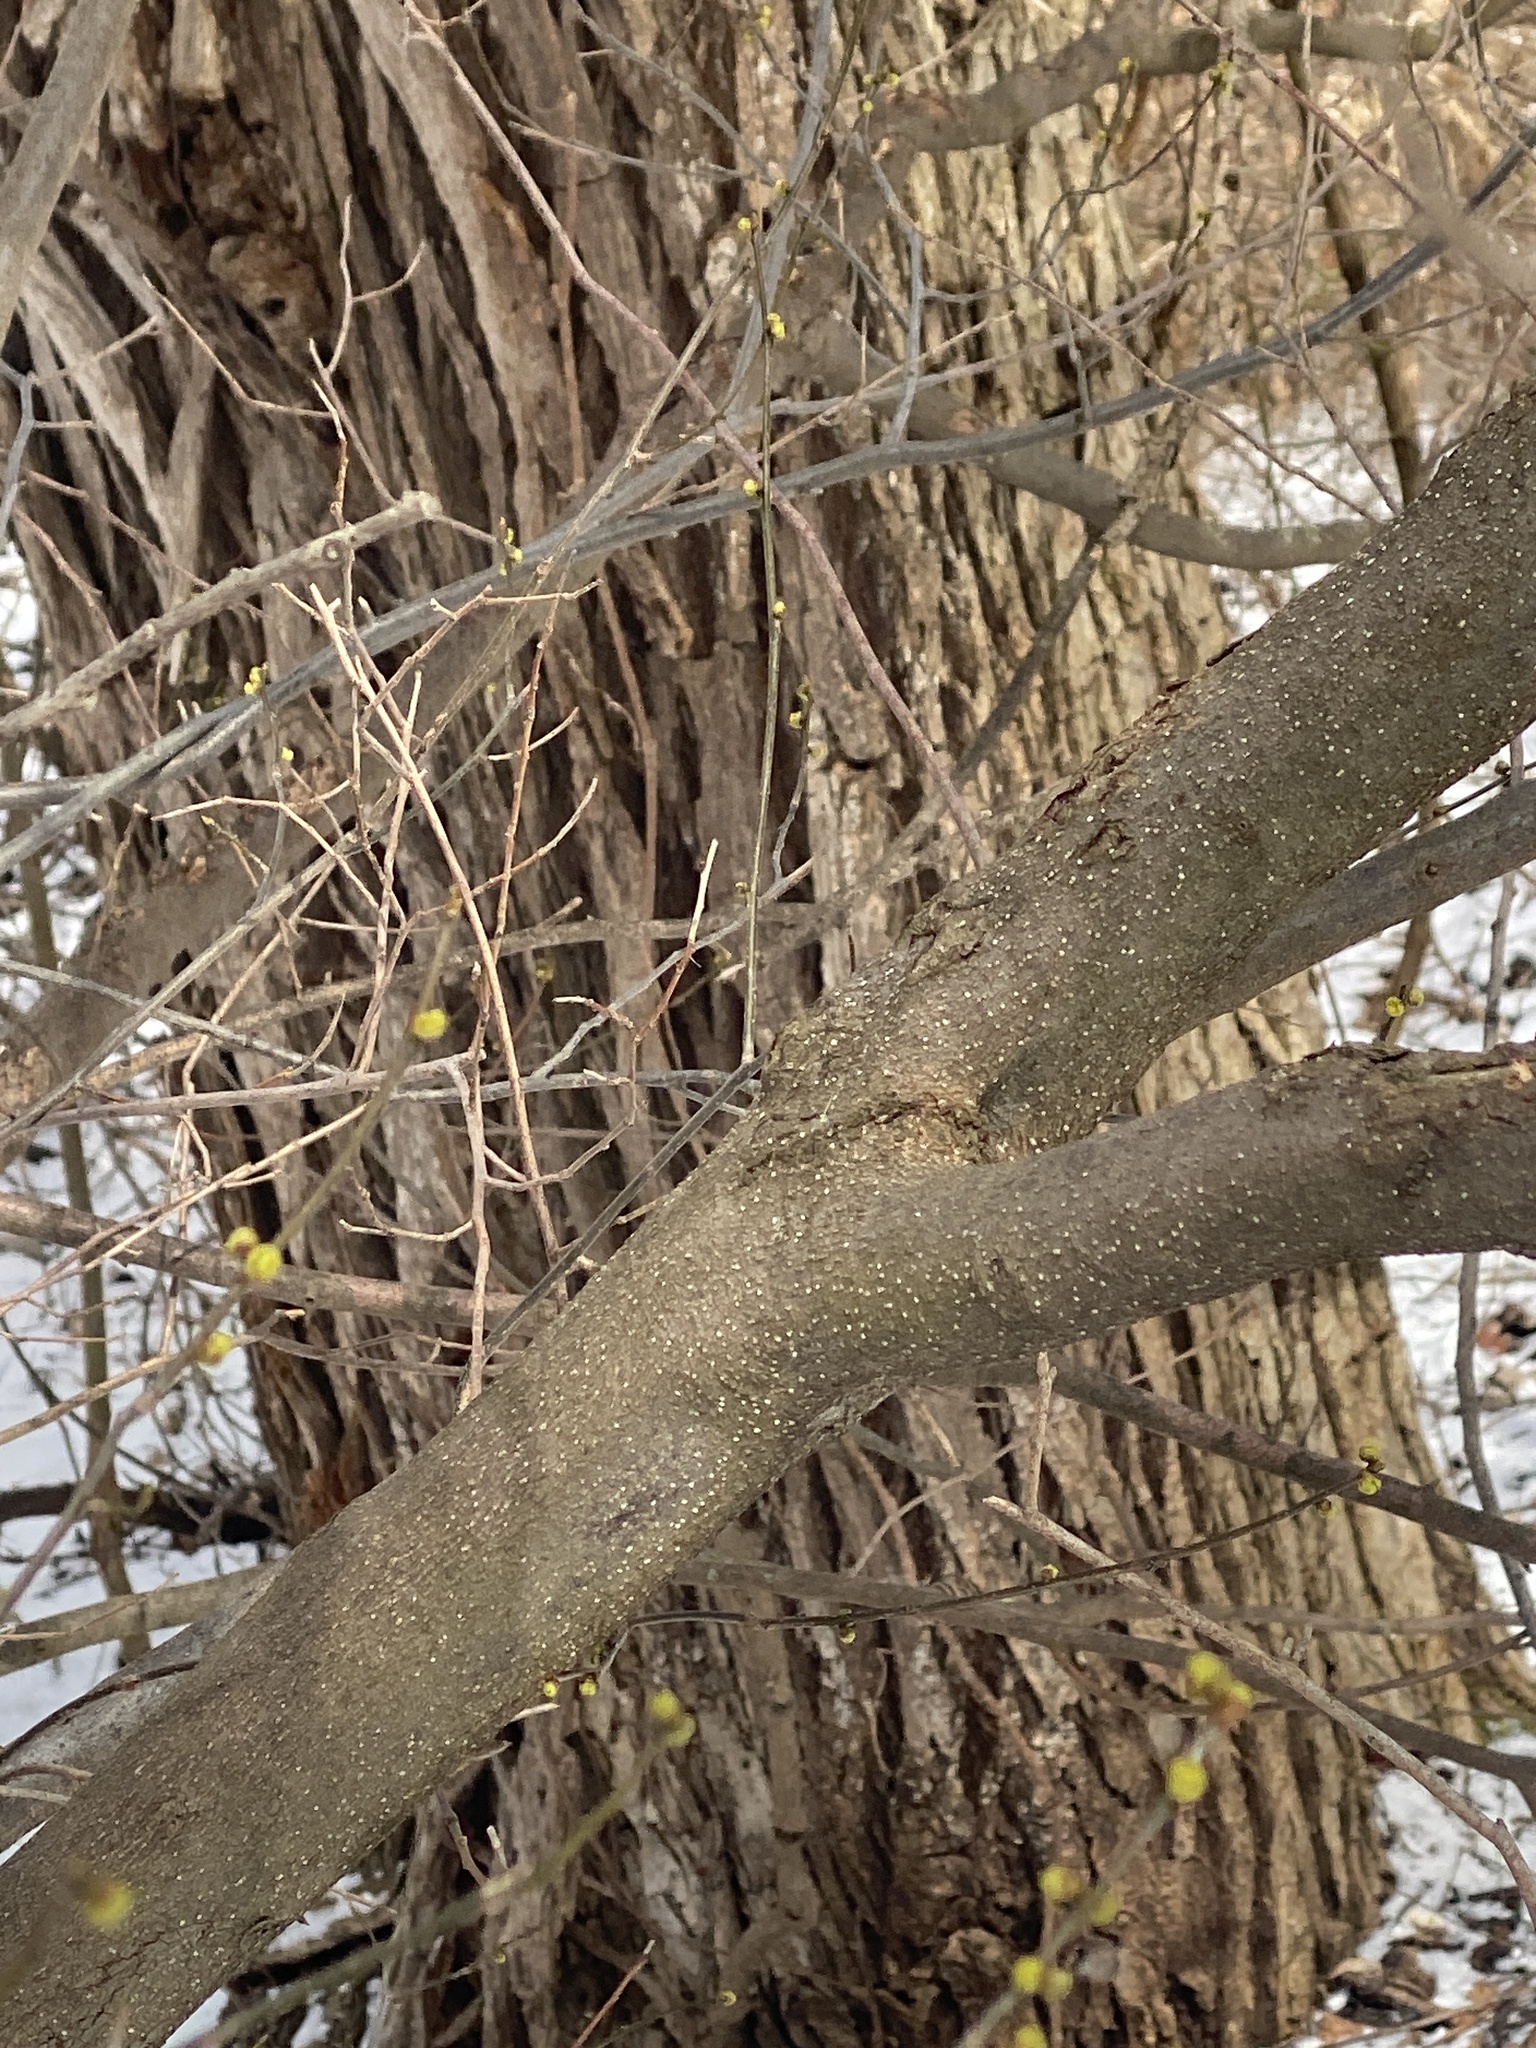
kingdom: Plantae
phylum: Tracheophyta
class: Magnoliopsida
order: Laurales
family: Lauraceae
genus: Lindera
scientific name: Lindera benzoin
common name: Spicebush
